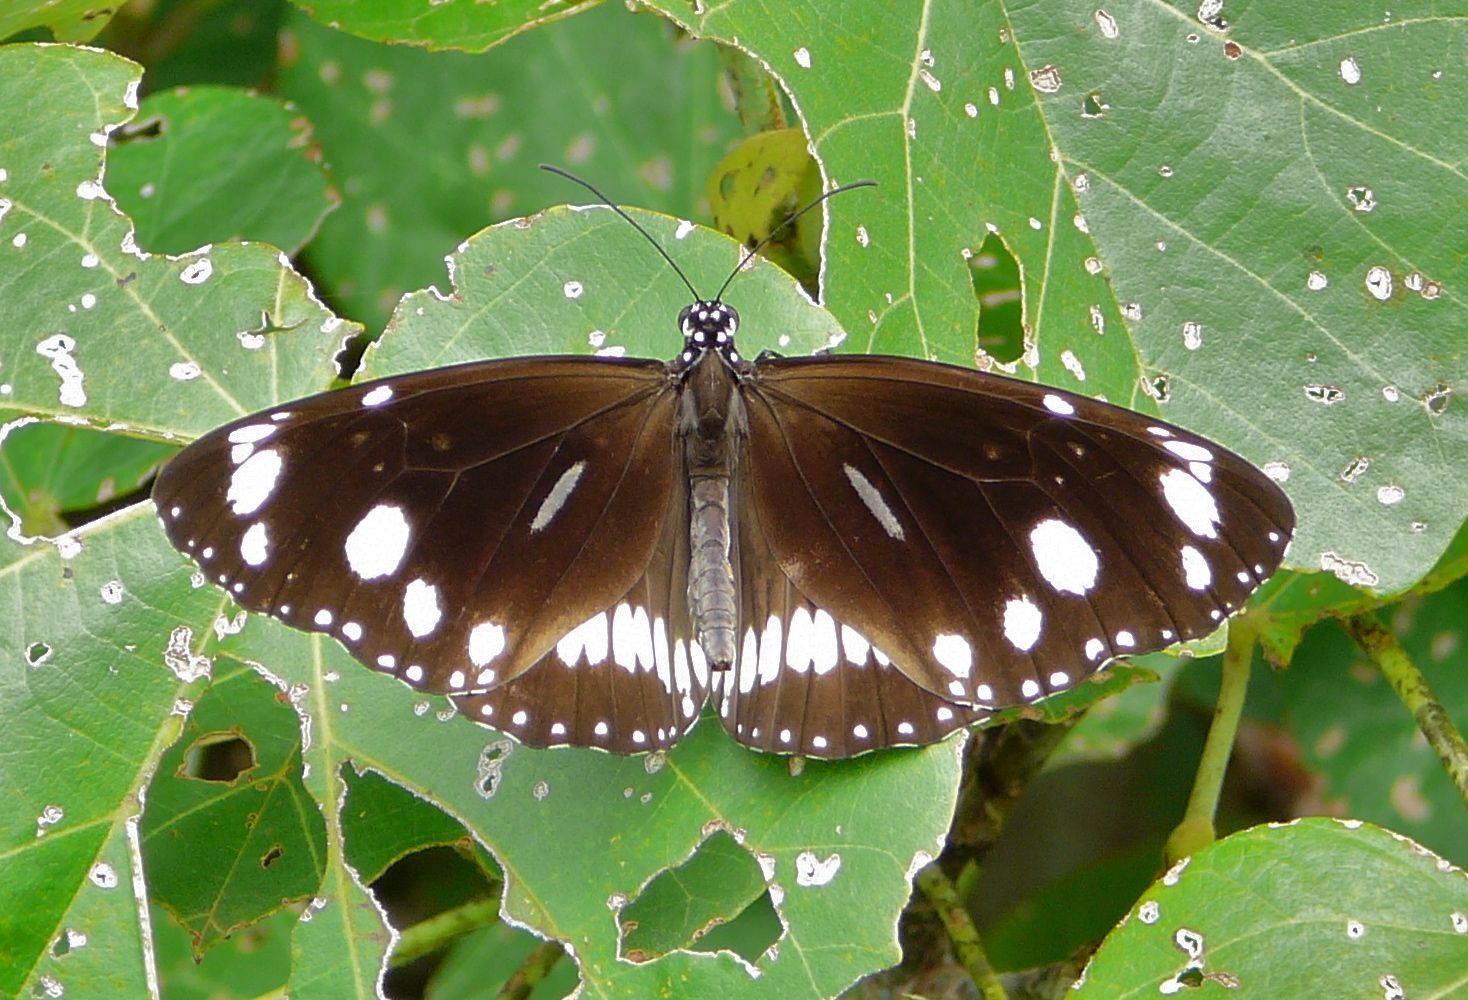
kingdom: Animalia
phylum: Arthropoda
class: Insecta
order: Lepidoptera
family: Nymphalidae
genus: Euploea
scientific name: Euploea core
